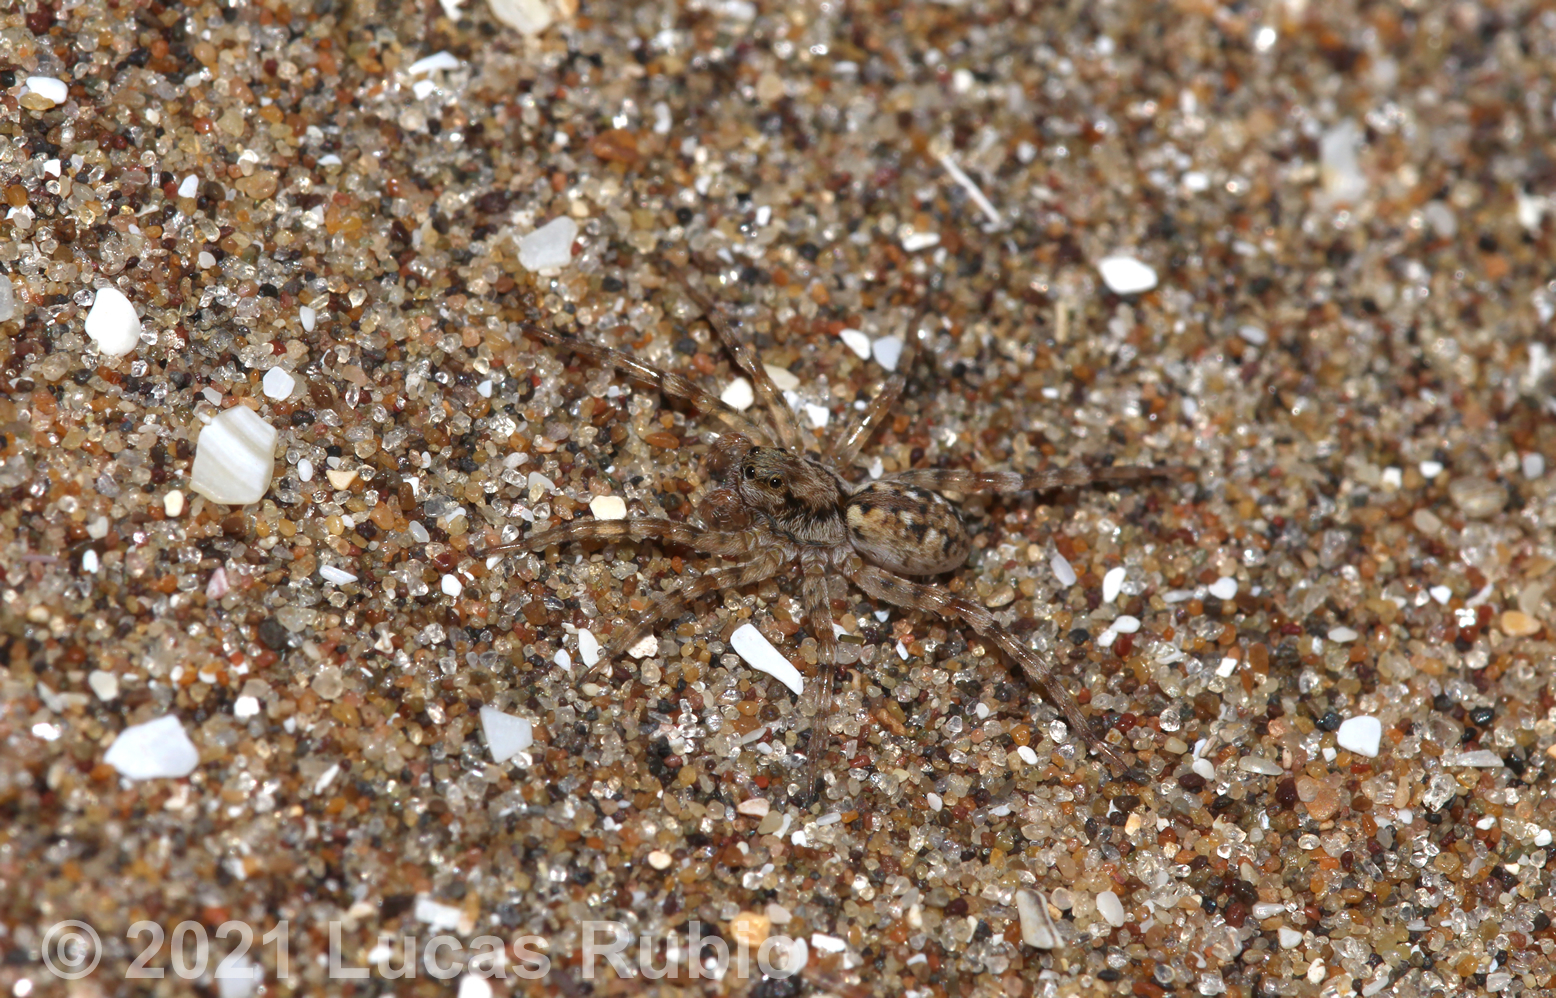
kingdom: Animalia
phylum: Arthropoda
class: Arachnida
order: Araneae
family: Lycosidae
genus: Allocosa
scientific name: Allocosa senex
